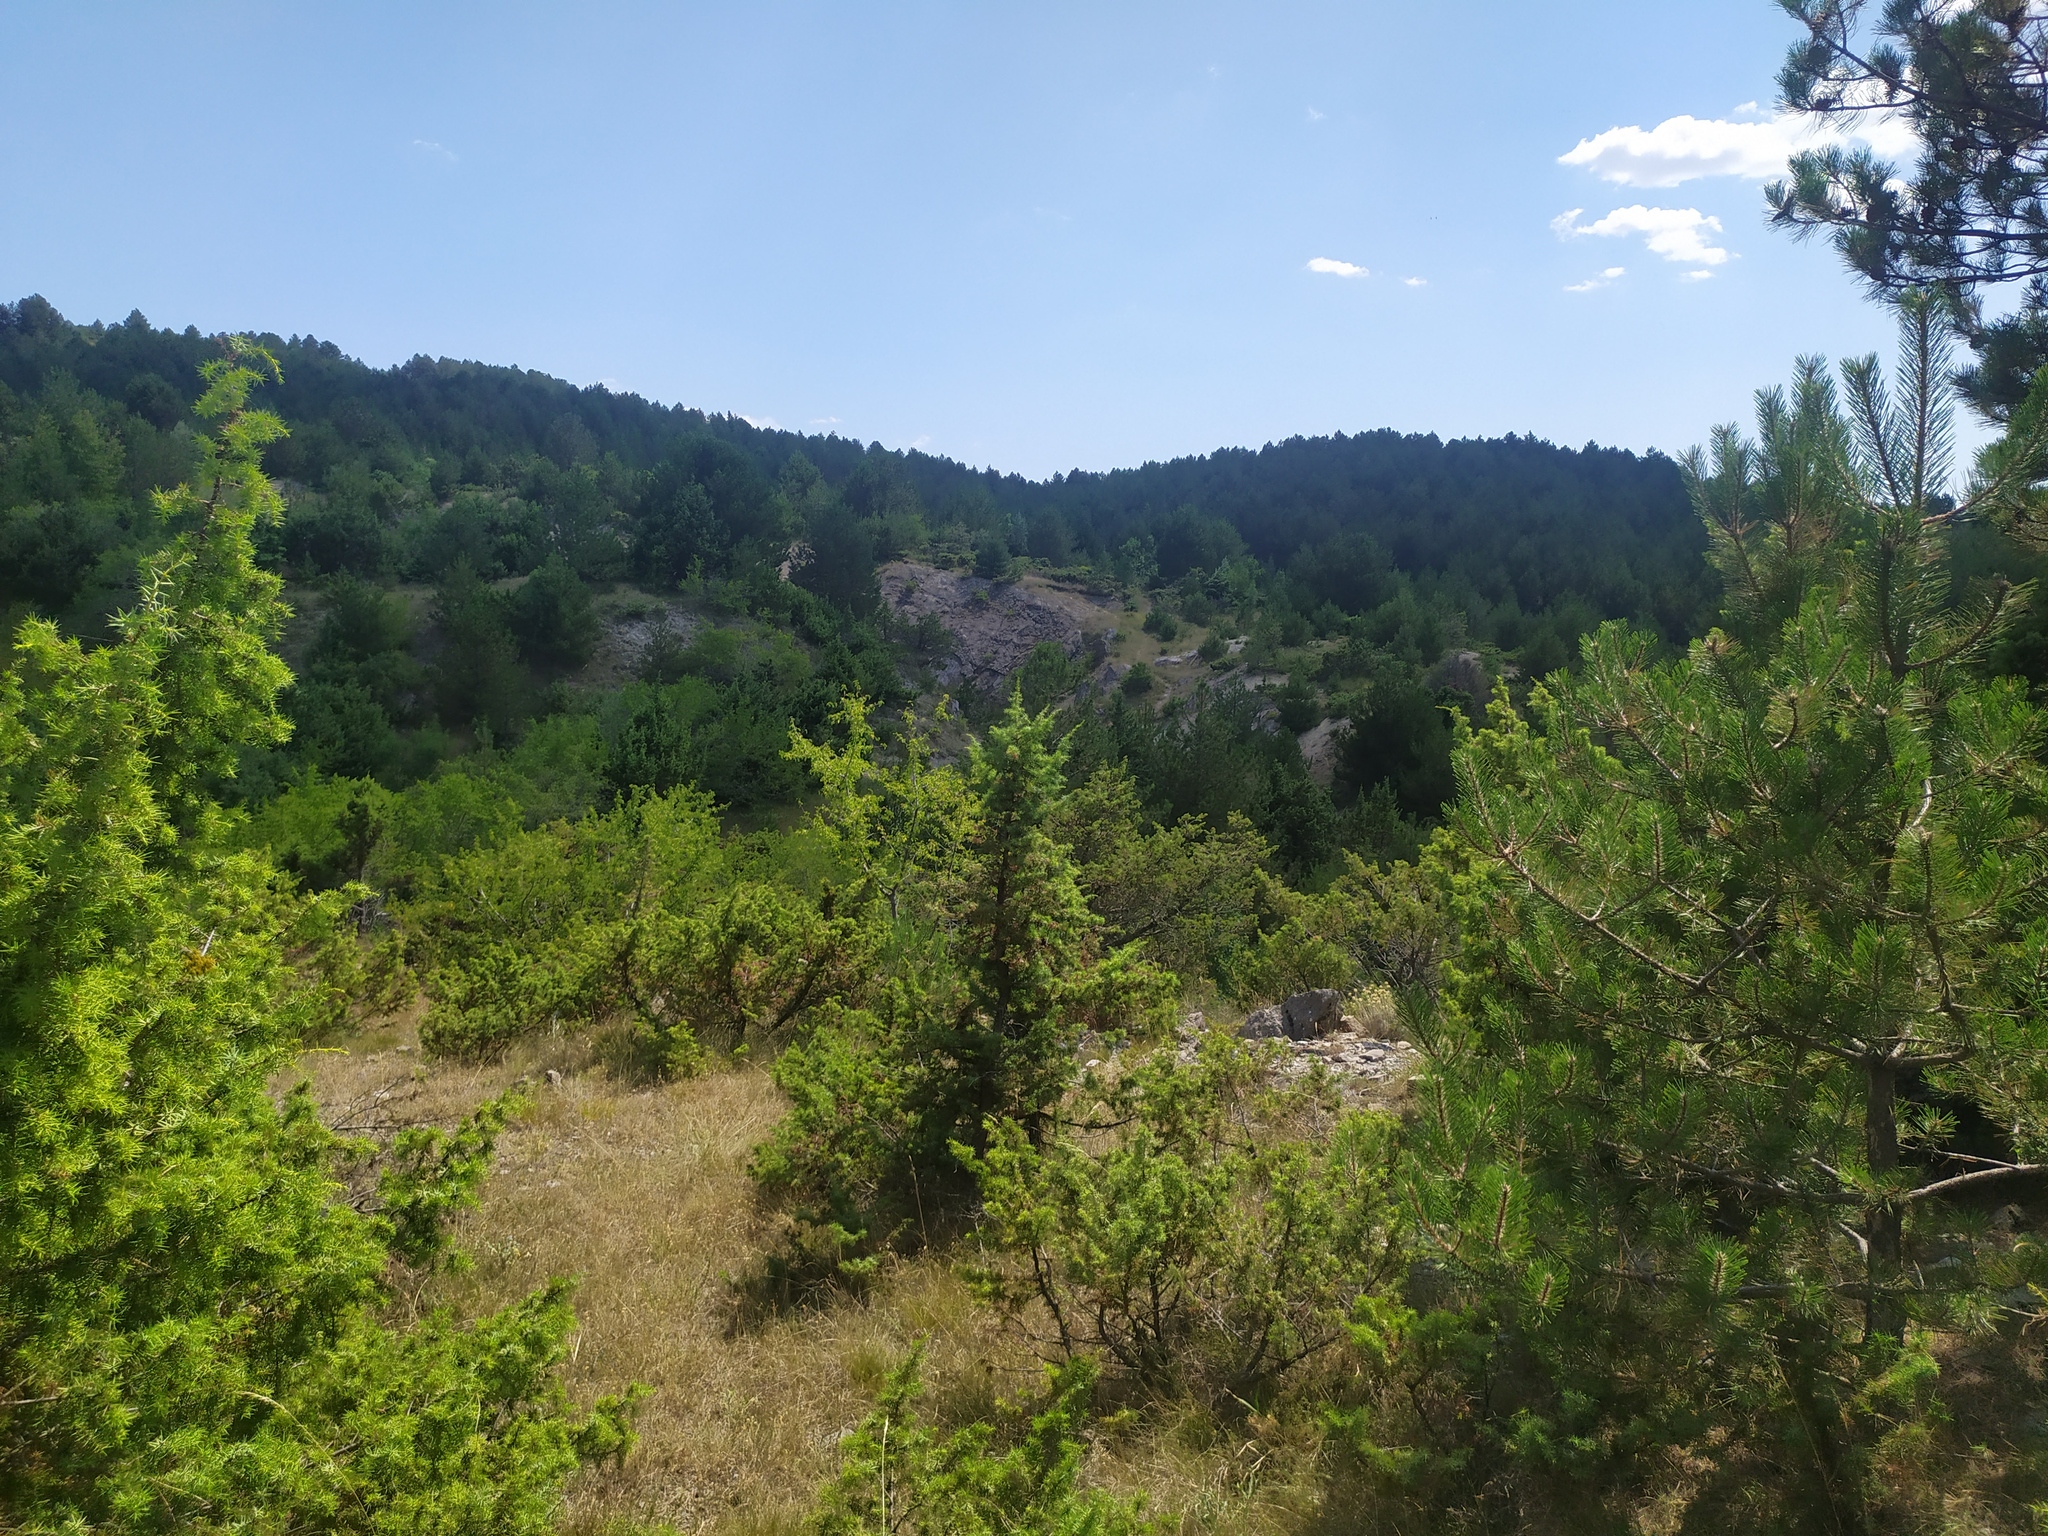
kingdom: Plantae
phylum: Tracheophyta
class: Pinopsida
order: Pinales
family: Cupressaceae
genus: Juniperus
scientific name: Juniperus oxycedrus
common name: Prickly juniper
